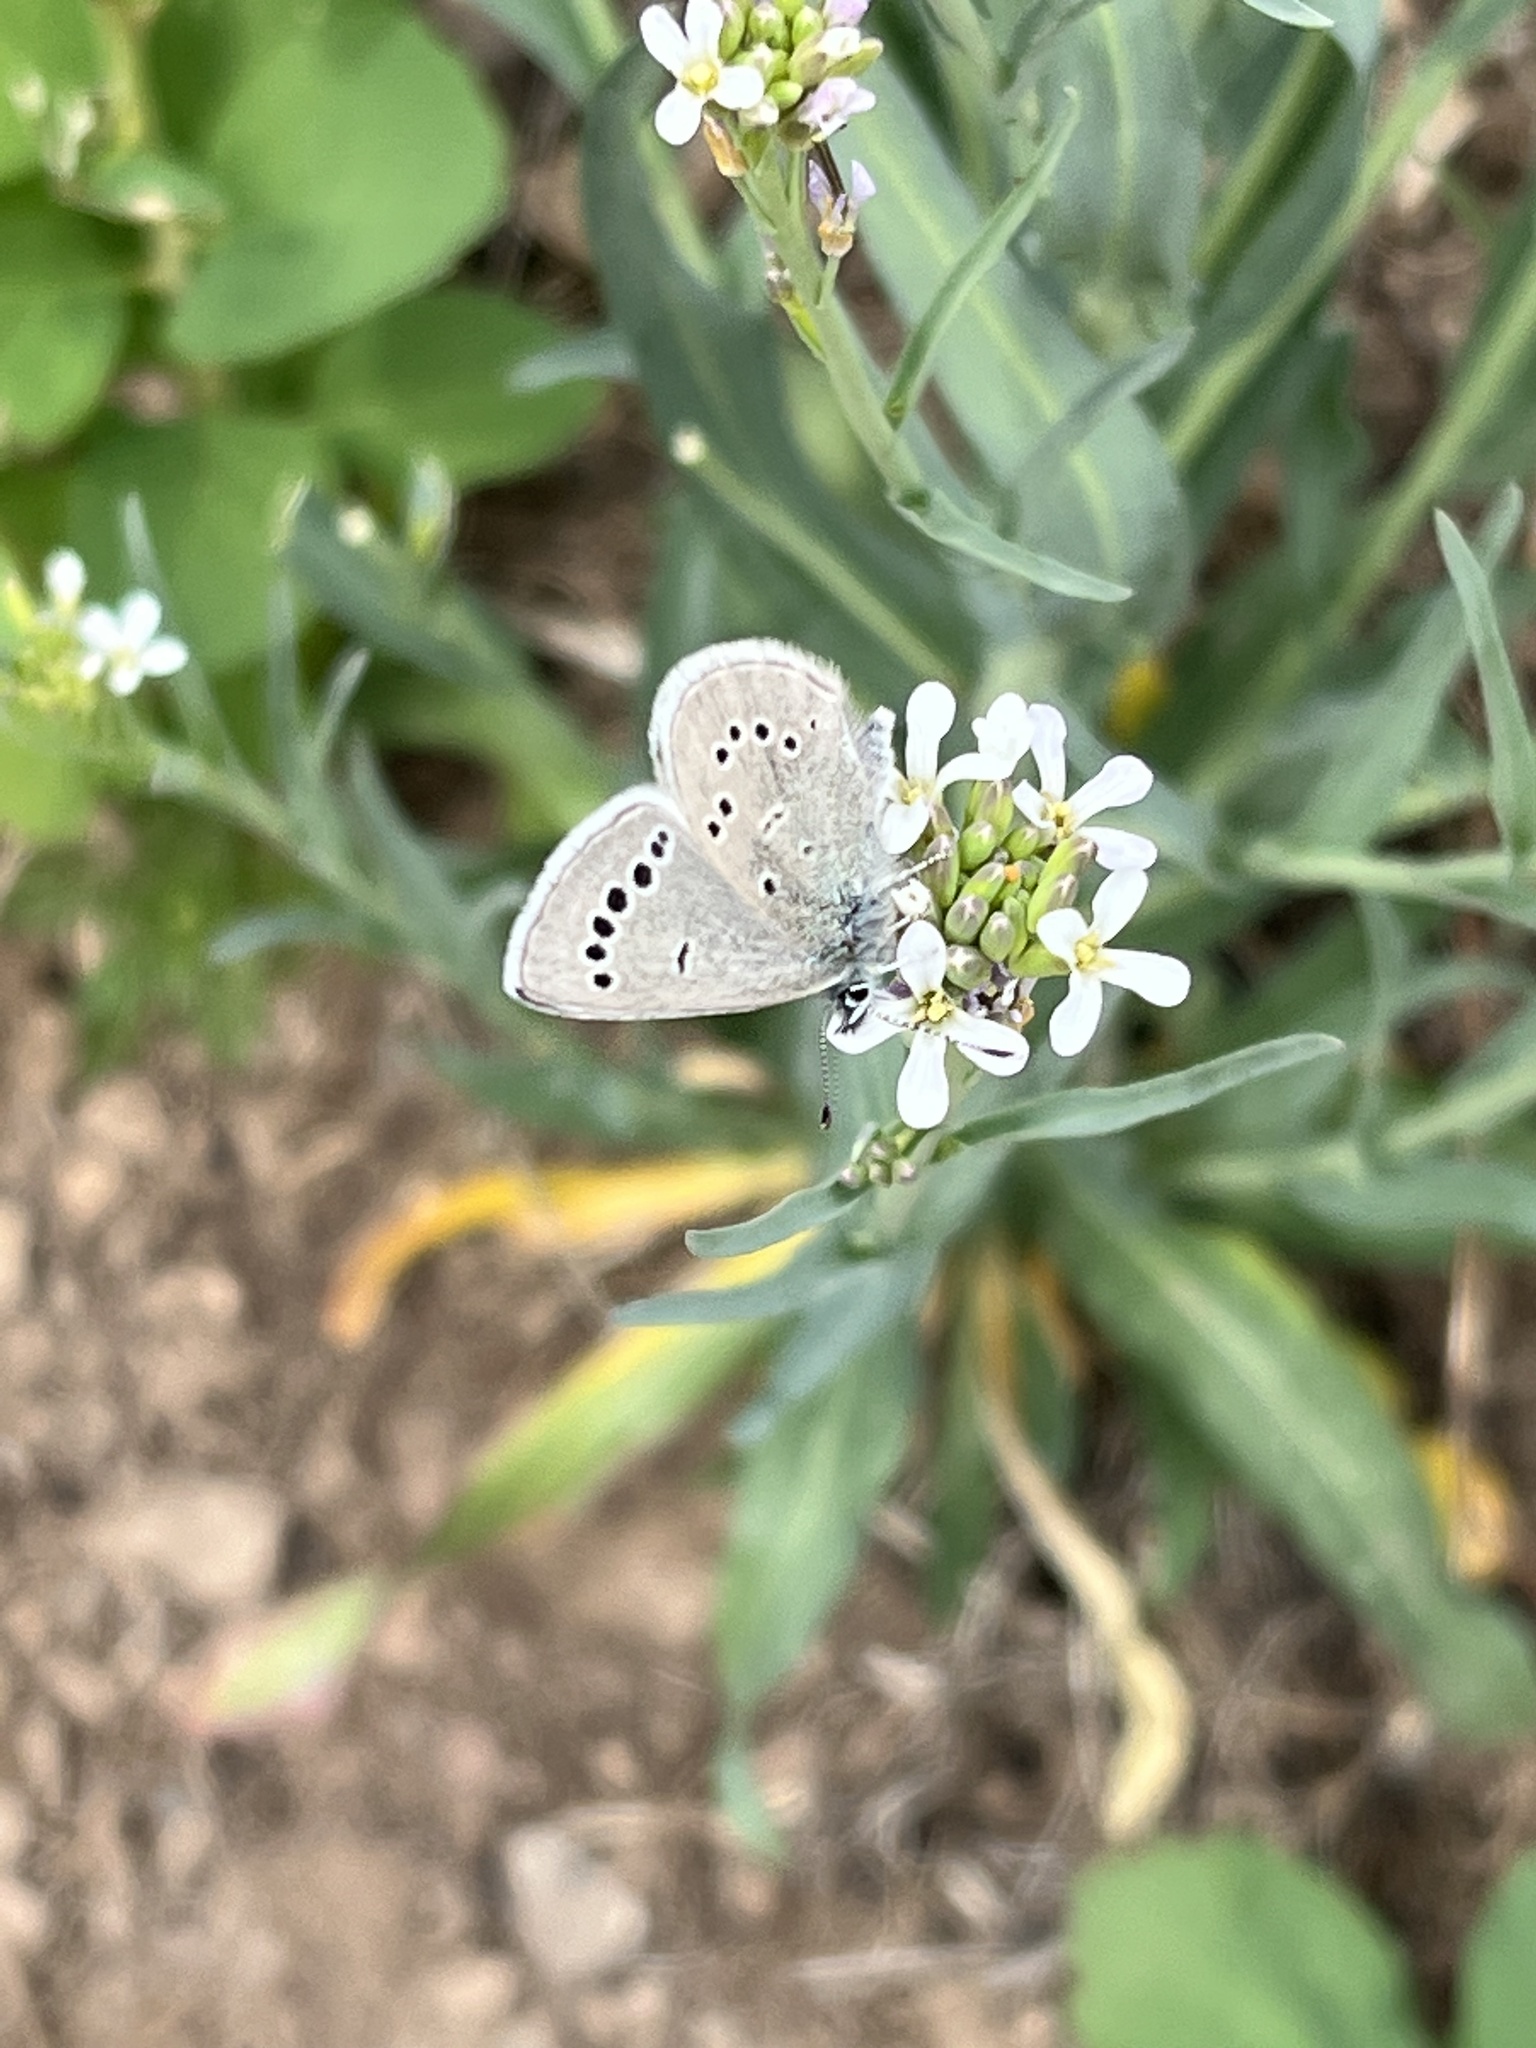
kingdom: Animalia
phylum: Arthropoda
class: Insecta
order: Lepidoptera
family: Lycaenidae
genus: Glaucopsyche
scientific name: Glaucopsyche lygdamus
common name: Silvery blue
